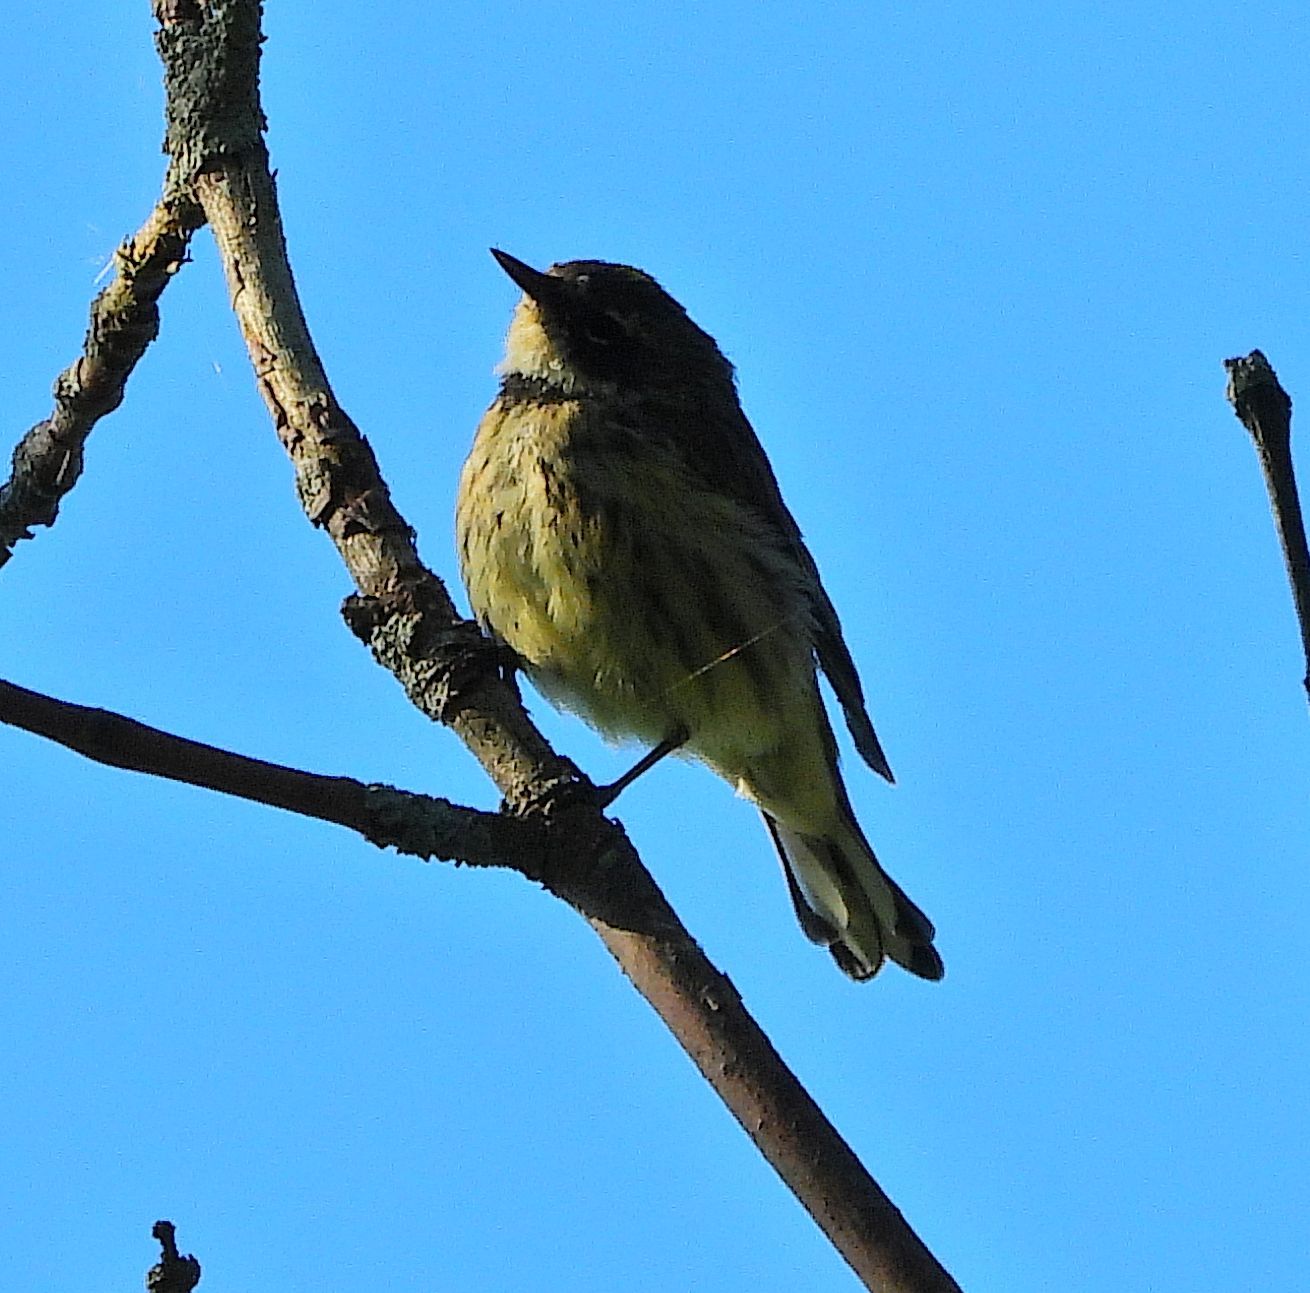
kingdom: Animalia
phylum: Chordata
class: Aves
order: Passeriformes
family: Parulidae
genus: Setophaga
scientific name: Setophaga coronata
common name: Myrtle warbler
